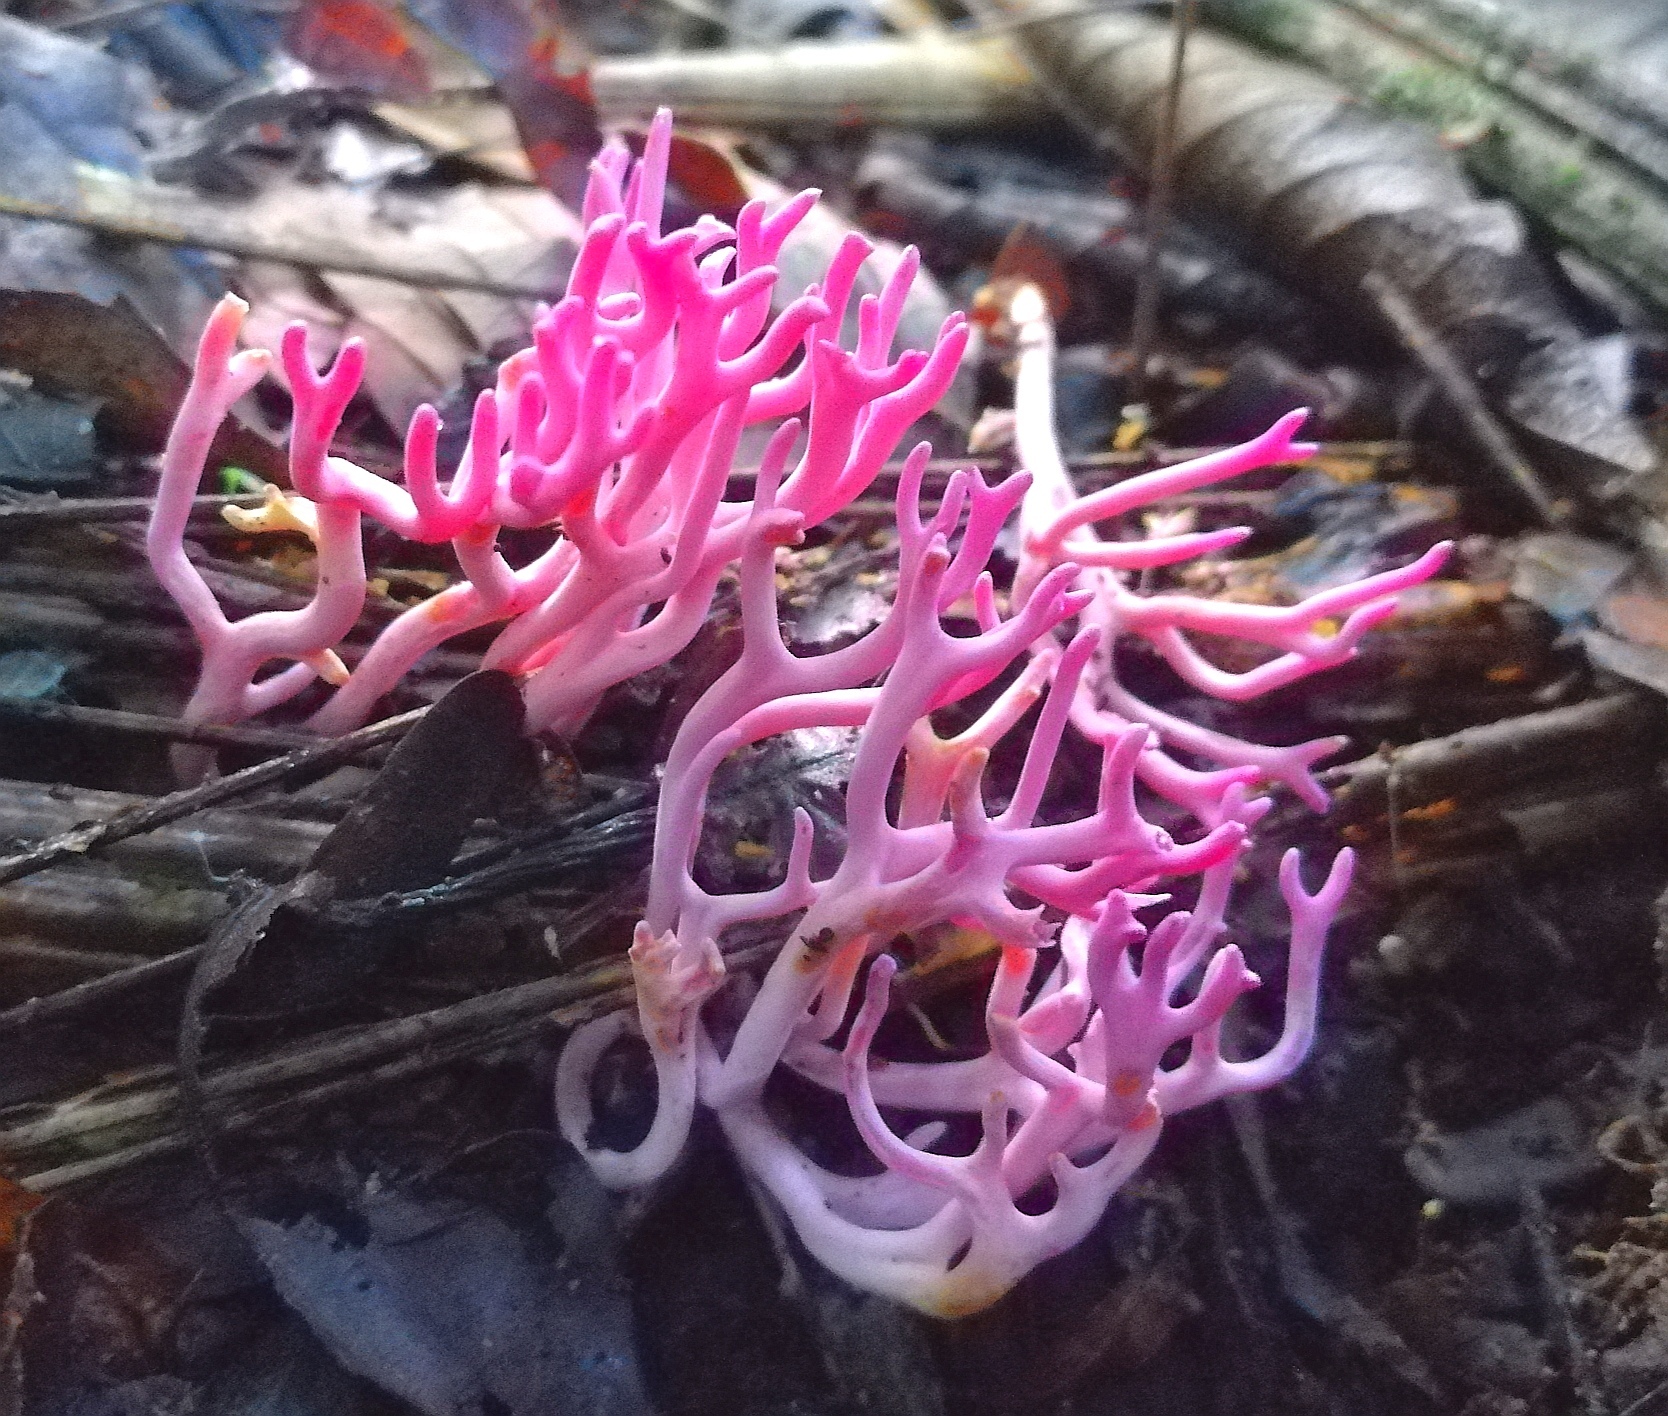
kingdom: Fungi
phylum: Basidiomycota
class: Agaricomycetes
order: Agaricales
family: Clavariaceae
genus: Clavaria
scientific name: Clavaria zollingeri
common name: Violet coral
